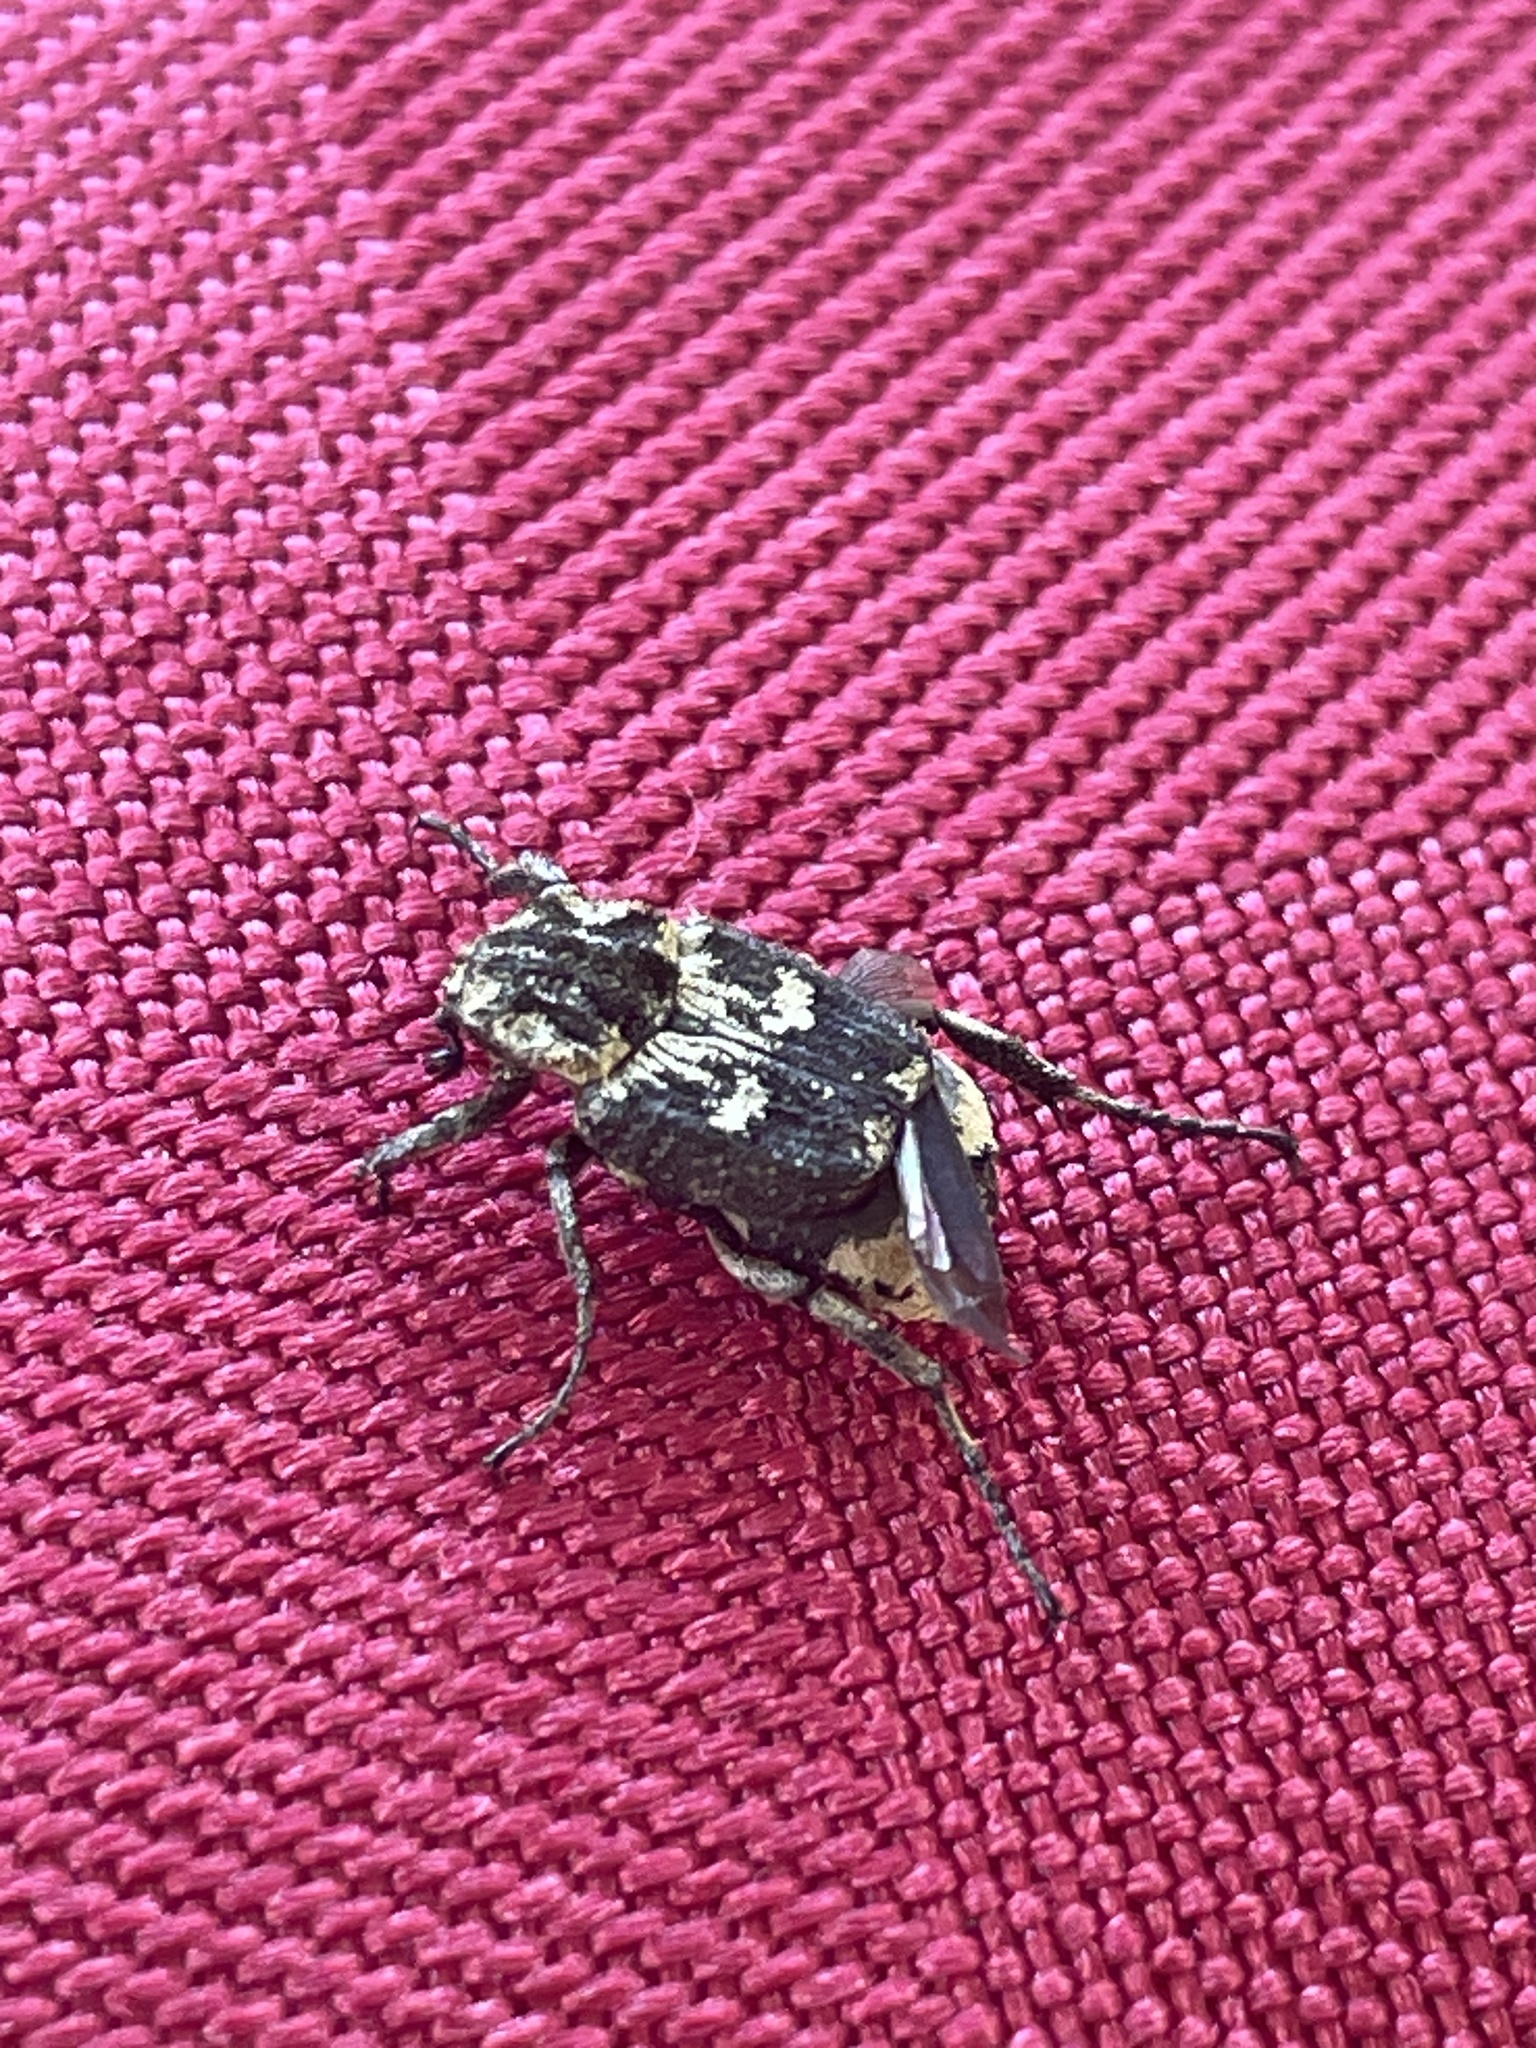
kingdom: Animalia
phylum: Arthropoda
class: Insecta
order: Coleoptera
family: Scarabaeidae
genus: Valgus
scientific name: Valgus hemipterus
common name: Bug flower chafer
